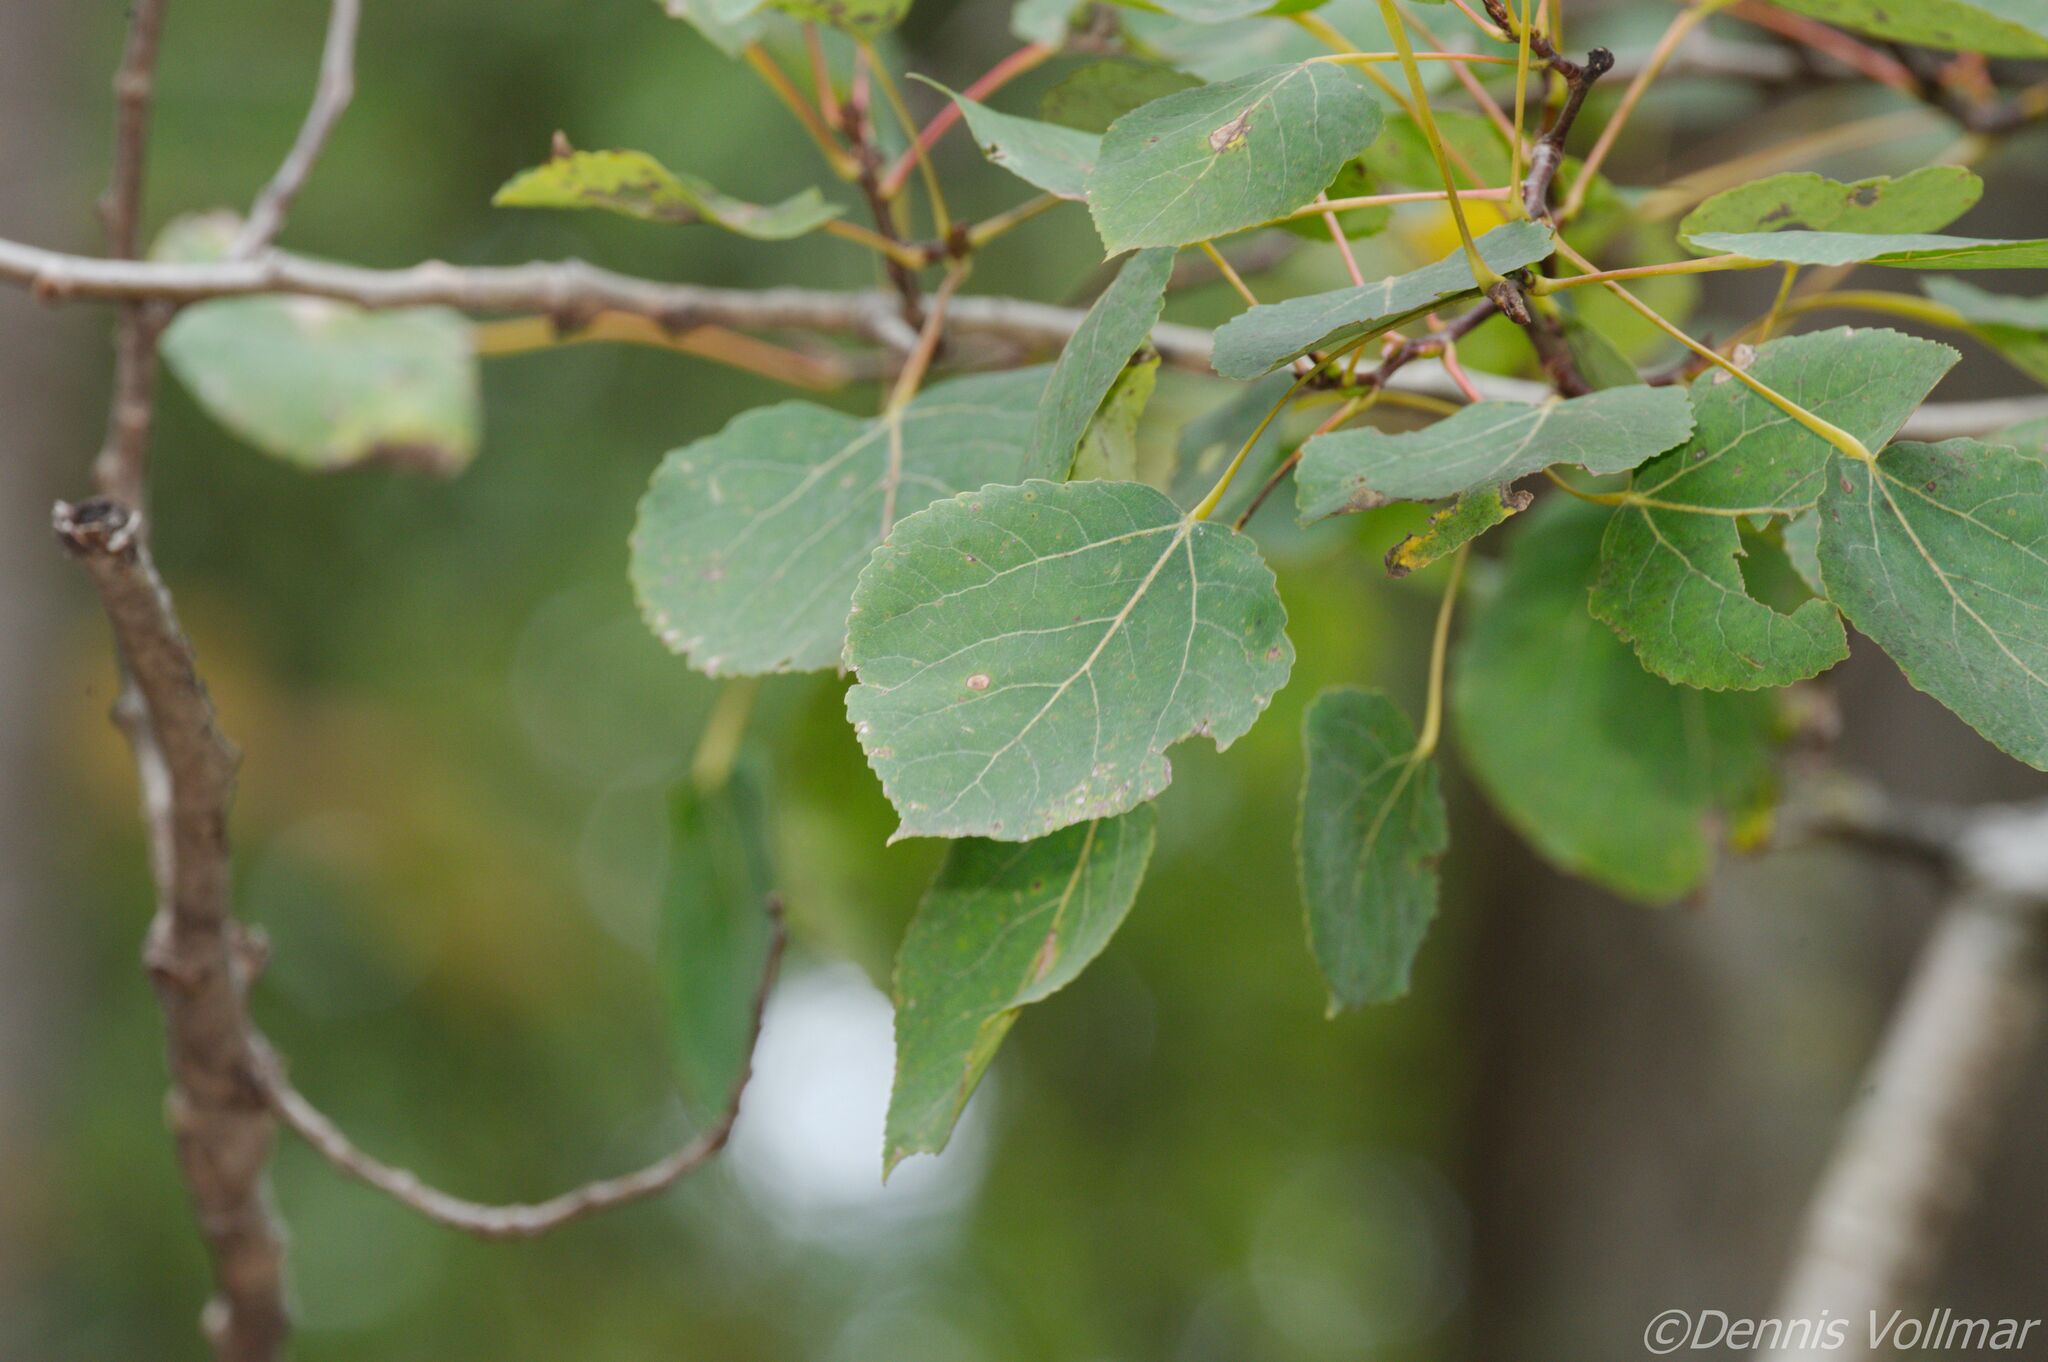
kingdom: Plantae
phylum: Tracheophyta
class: Magnoliopsida
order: Malpighiales
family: Salicaceae
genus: Populus
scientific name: Populus tremuloides
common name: Quaking aspen
